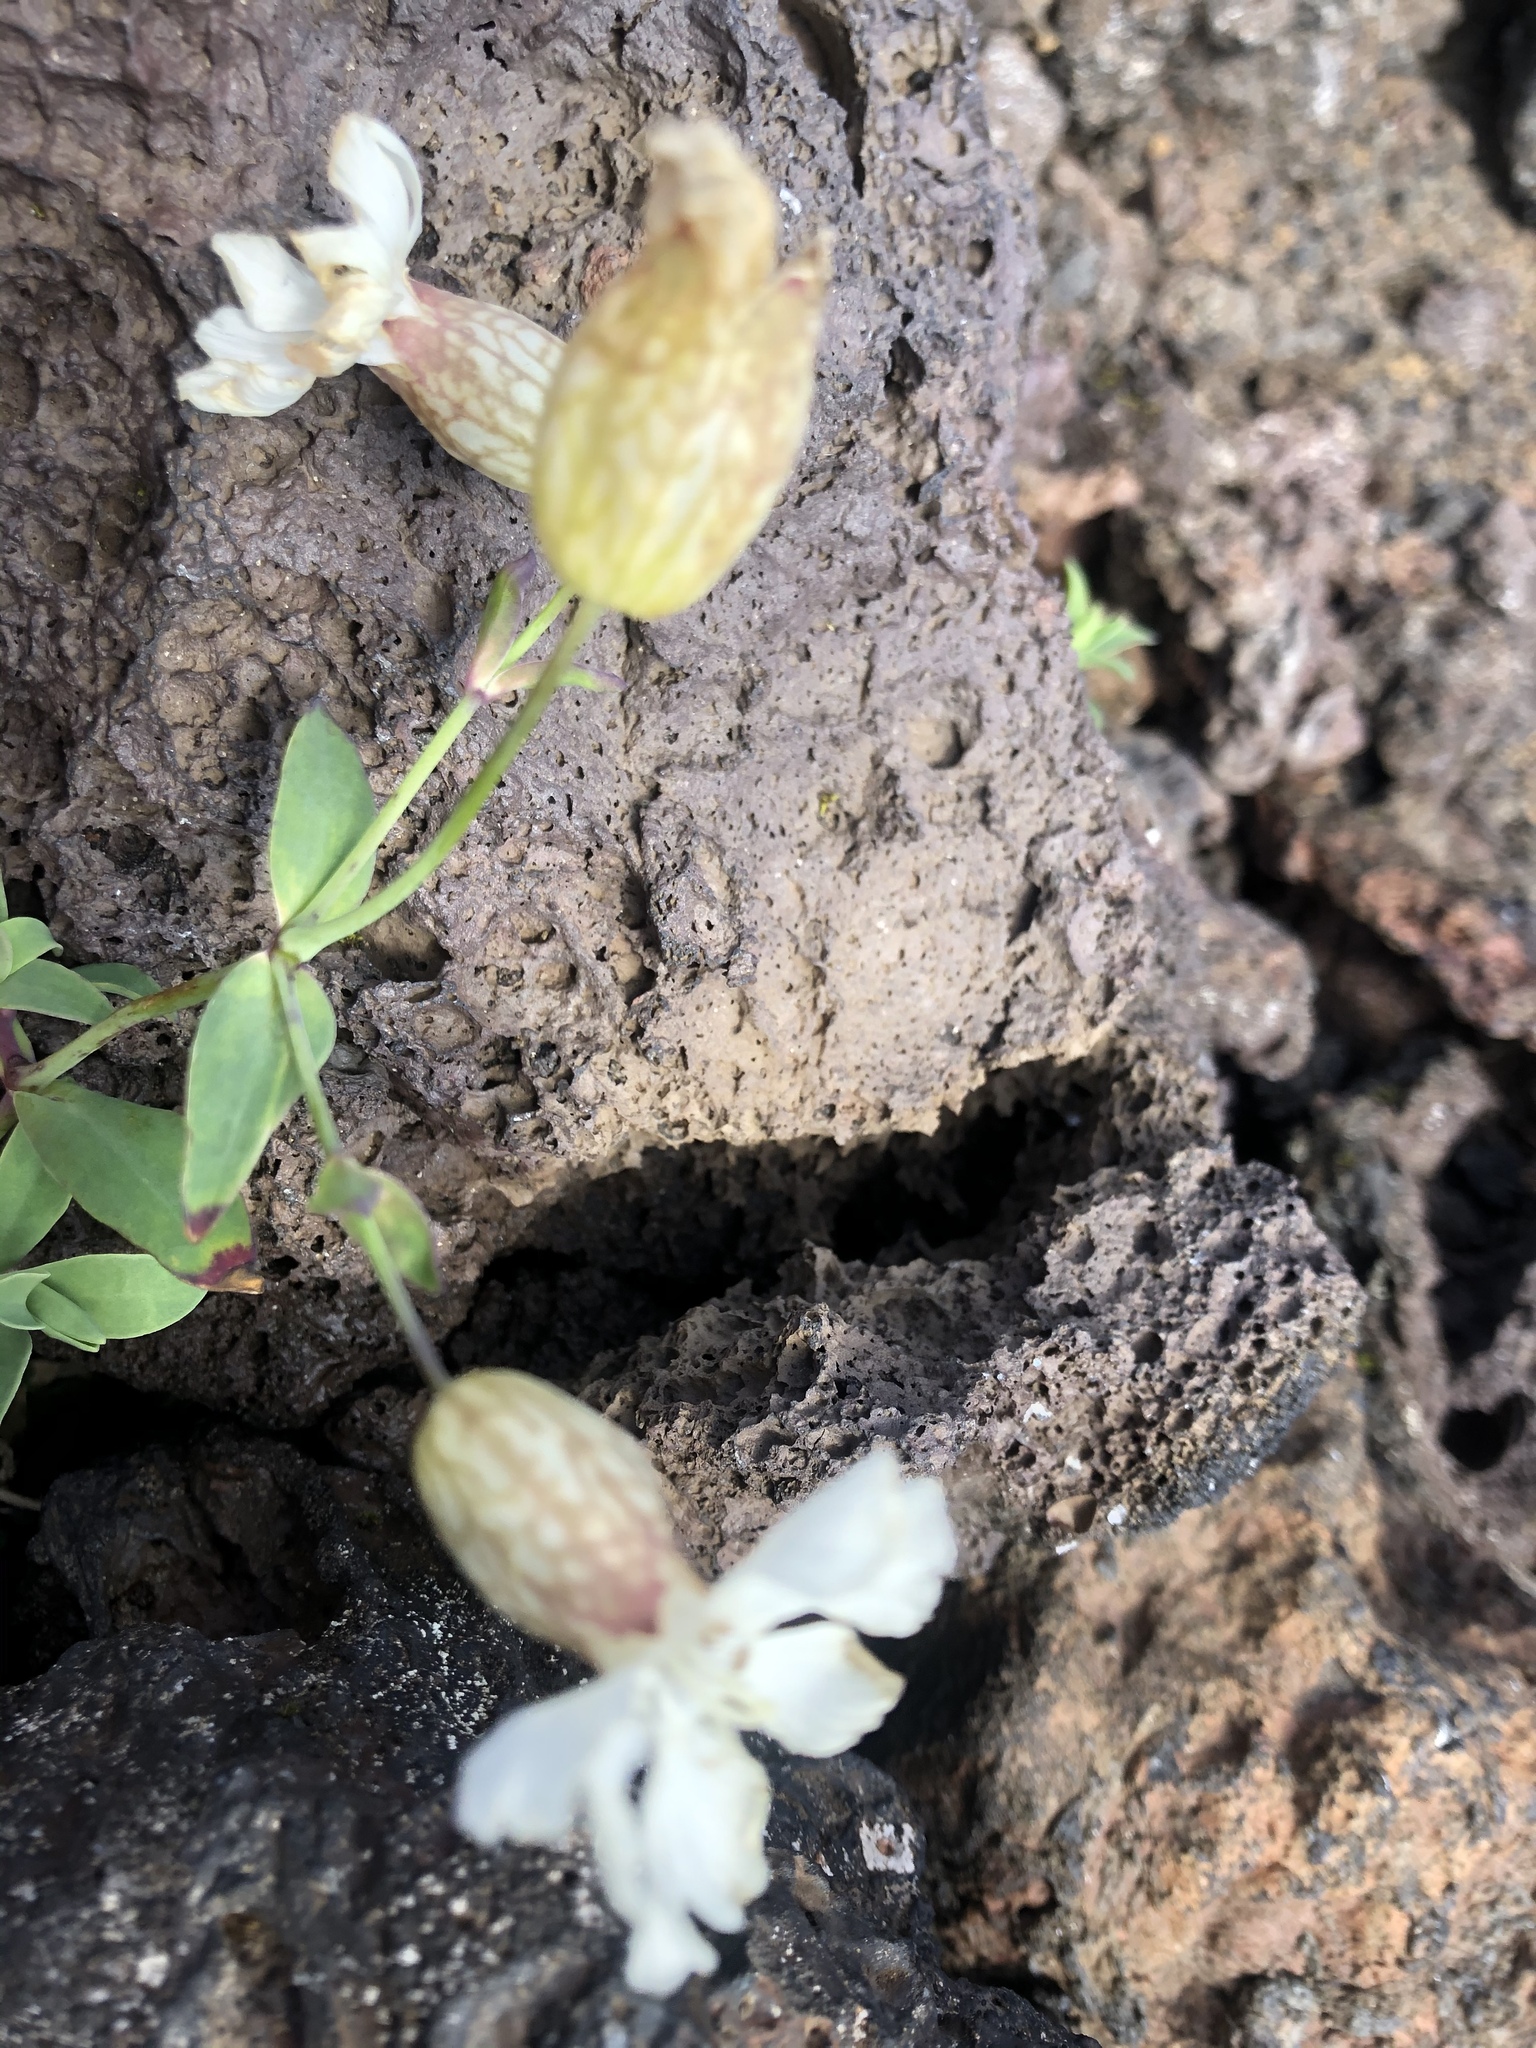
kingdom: Plantae
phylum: Tracheophyta
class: Magnoliopsida
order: Caryophyllales
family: Caryophyllaceae
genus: Silene
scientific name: Silene uniflora
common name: Sea campion
